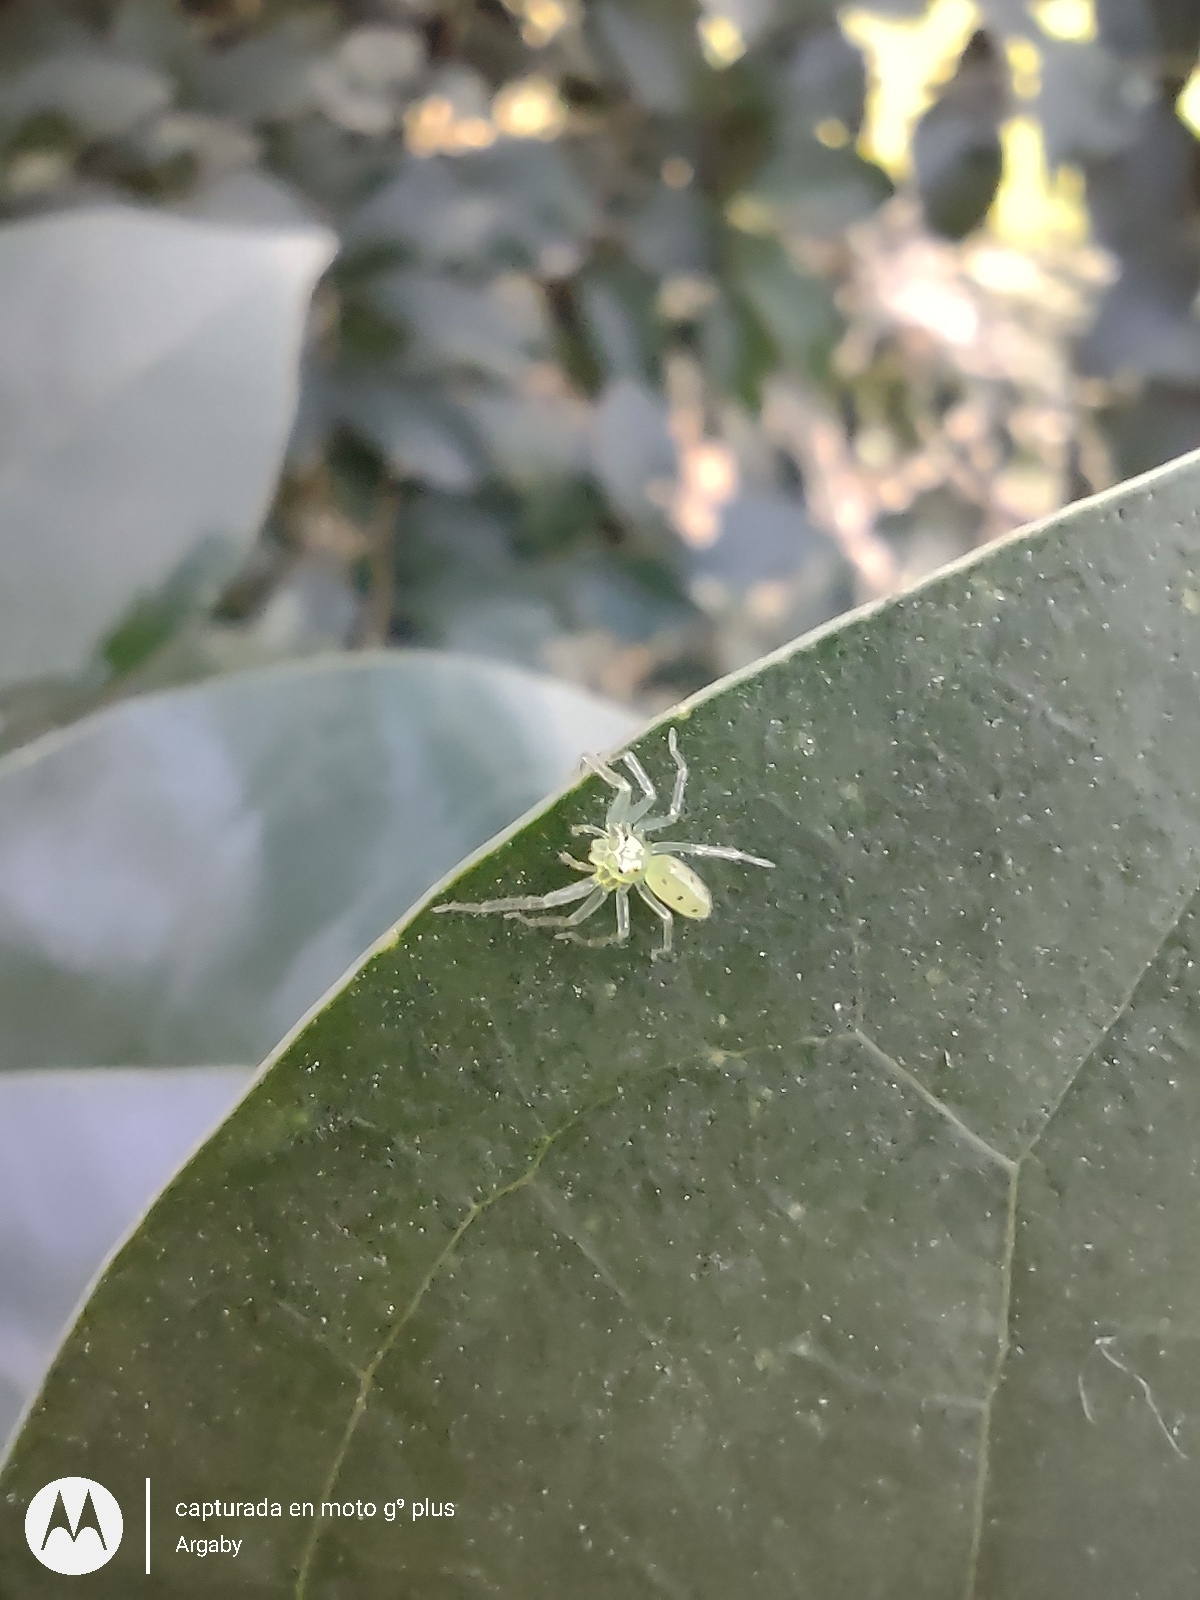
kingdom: Animalia
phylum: Arthropoda
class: Arachnida
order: Araneae
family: Salticidae
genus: Lyssomanes
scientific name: Lyssomanes pauper
